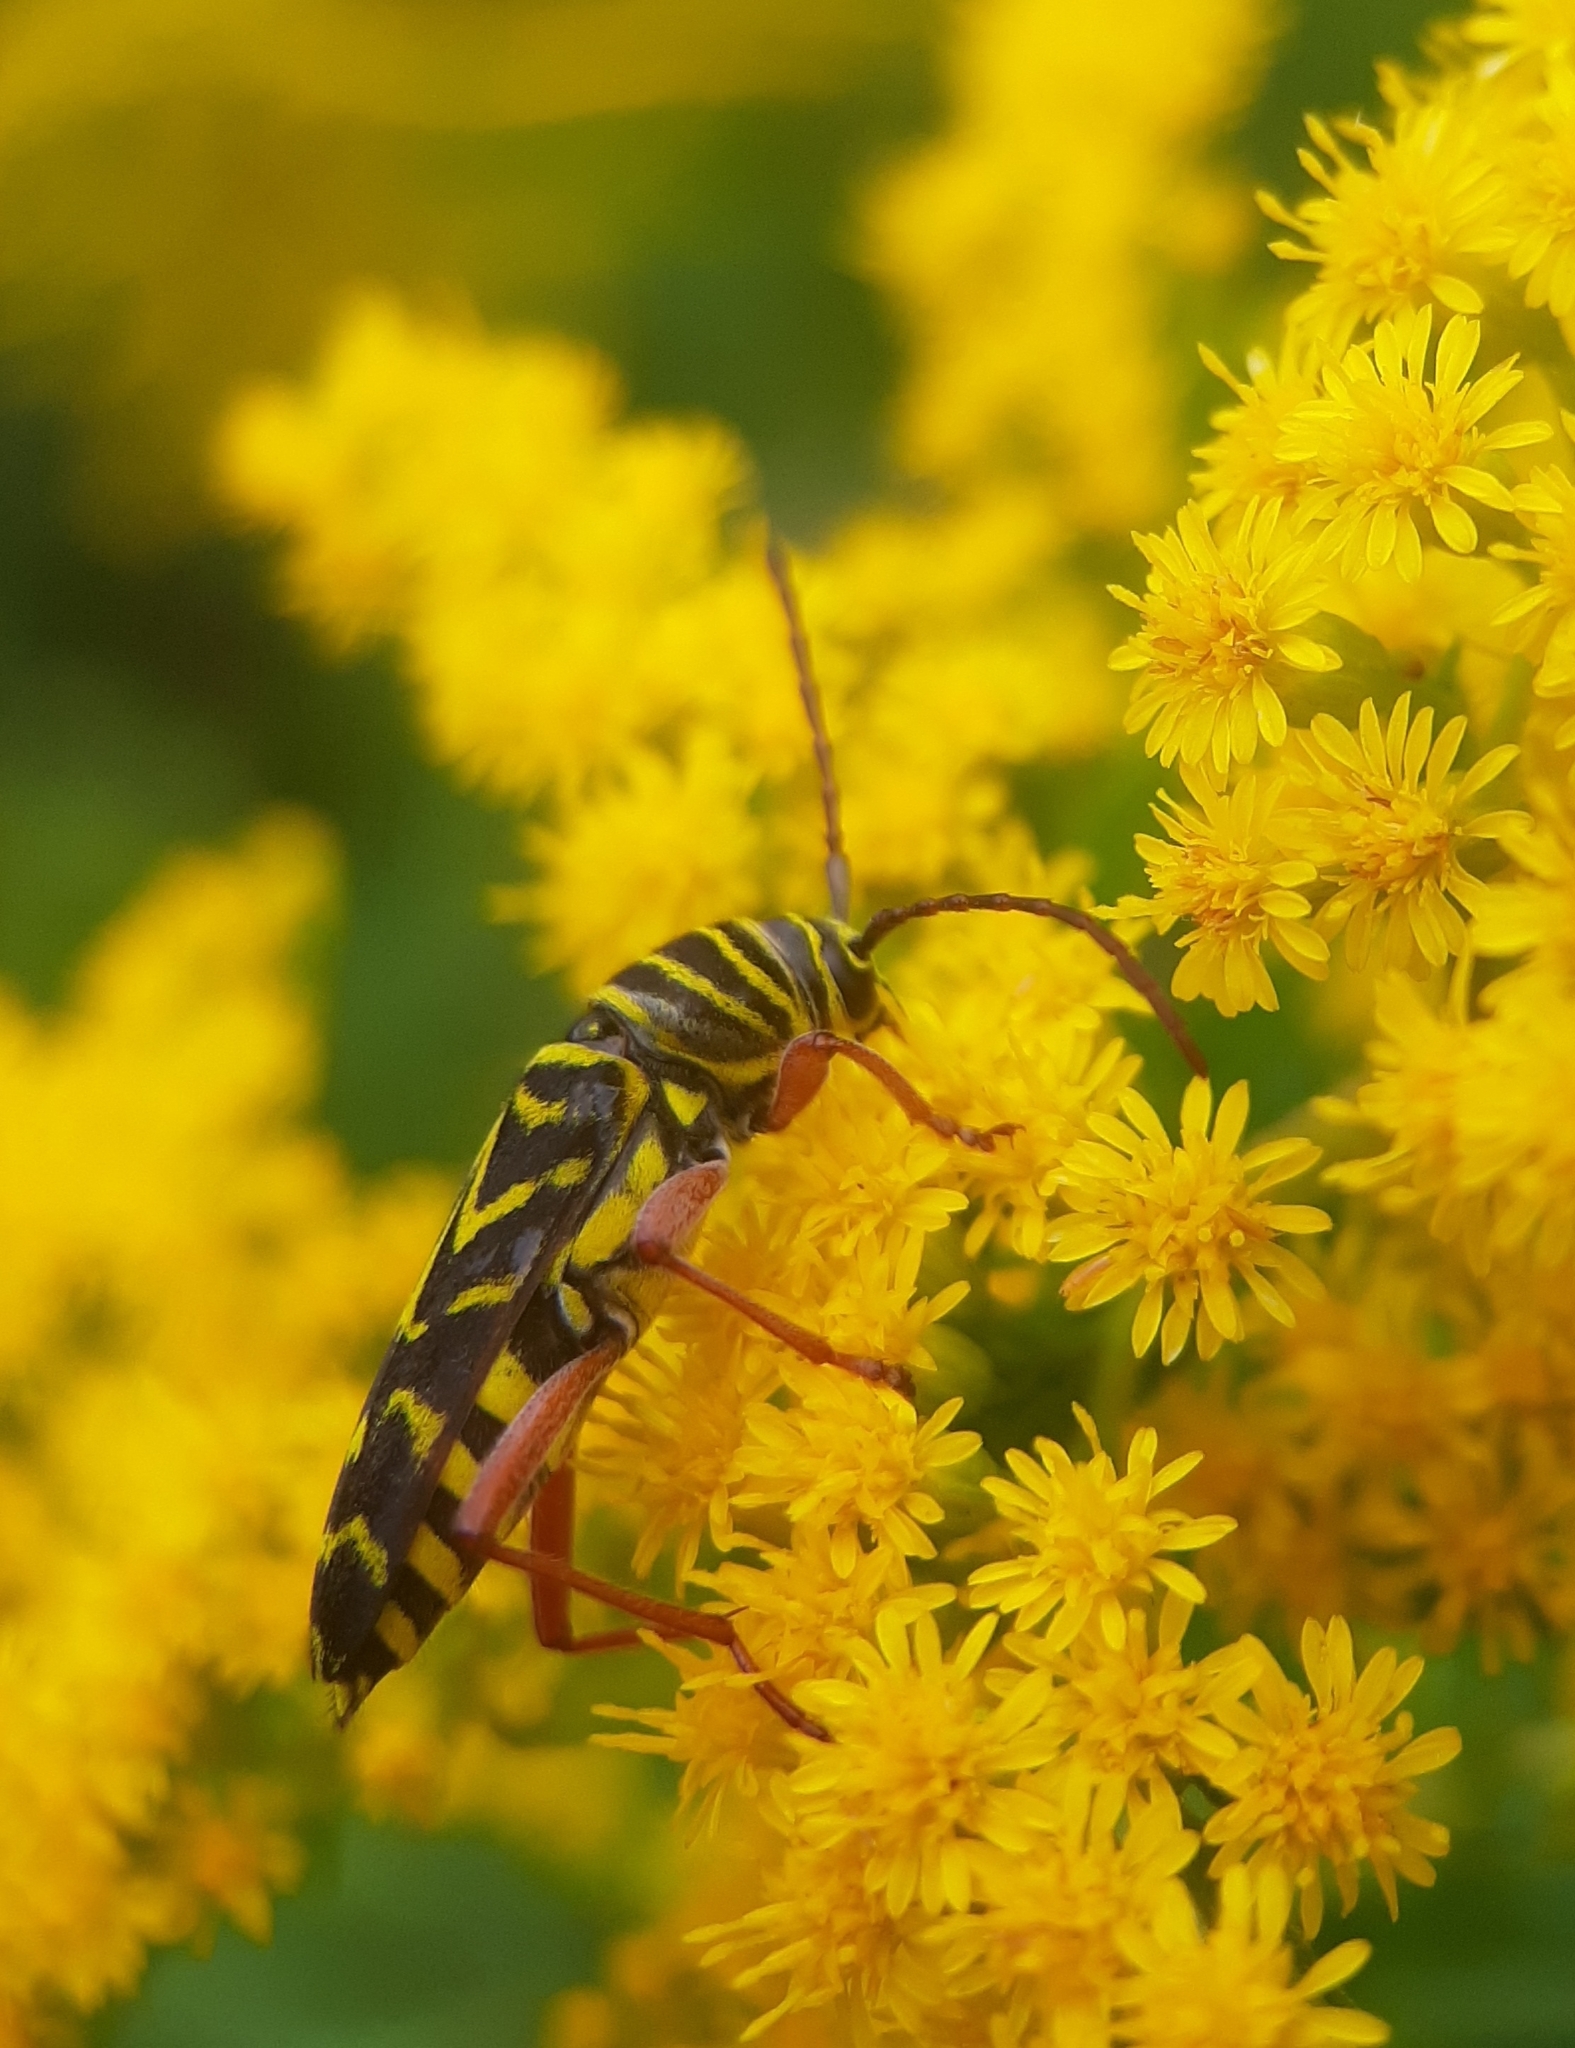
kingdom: Animalia
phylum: Arthropoda
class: Insecta
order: Coleoptera
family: Cerambycidae
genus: Megacyllene
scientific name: Megacyllene robiniae
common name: Locust borer
